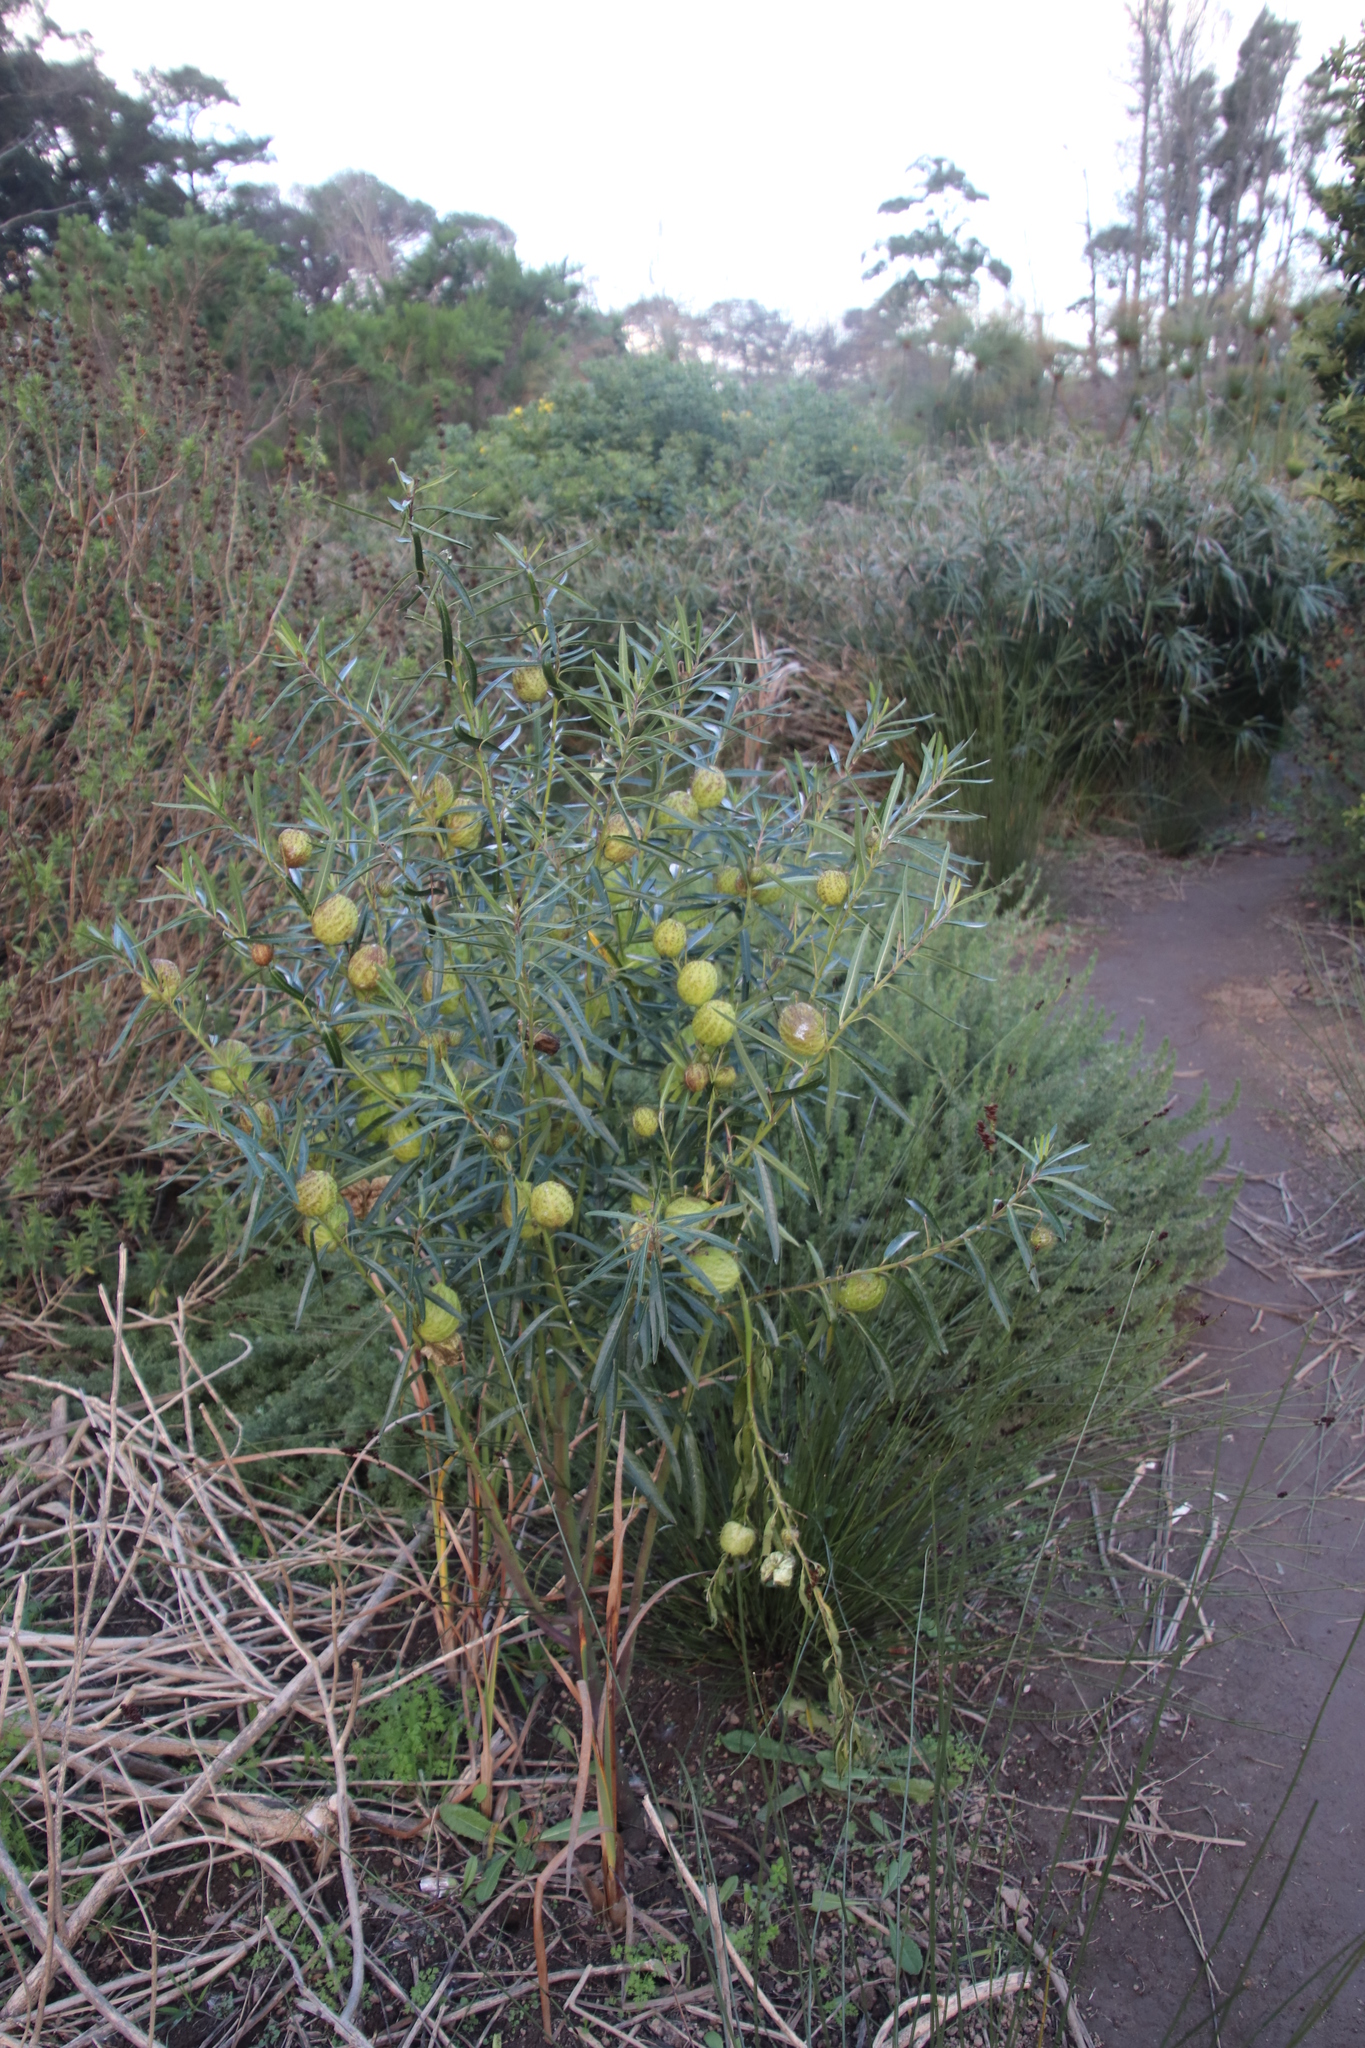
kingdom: Plantae
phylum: Tracheophyta
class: Magnoliopsida
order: Gentianales
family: Apocynaceae
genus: Gomphocarpus
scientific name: Gomphocarpus physocarpus
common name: Balloon cotton bush
